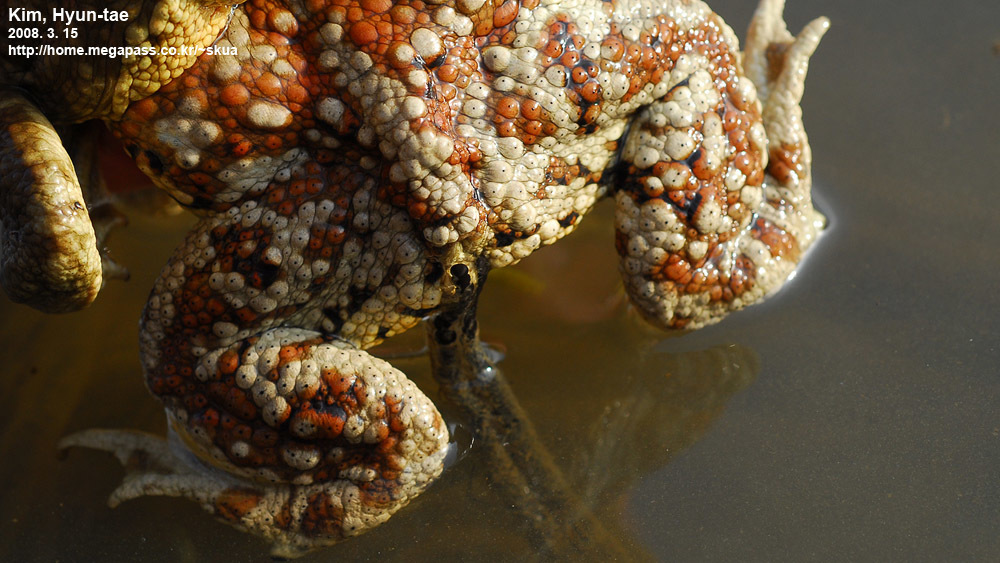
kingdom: Animalia
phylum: Chordata
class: Amphibia
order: Anura
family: Bufonidae
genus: Bufo
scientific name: Bufo gargarizans
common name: Asiatic toad
